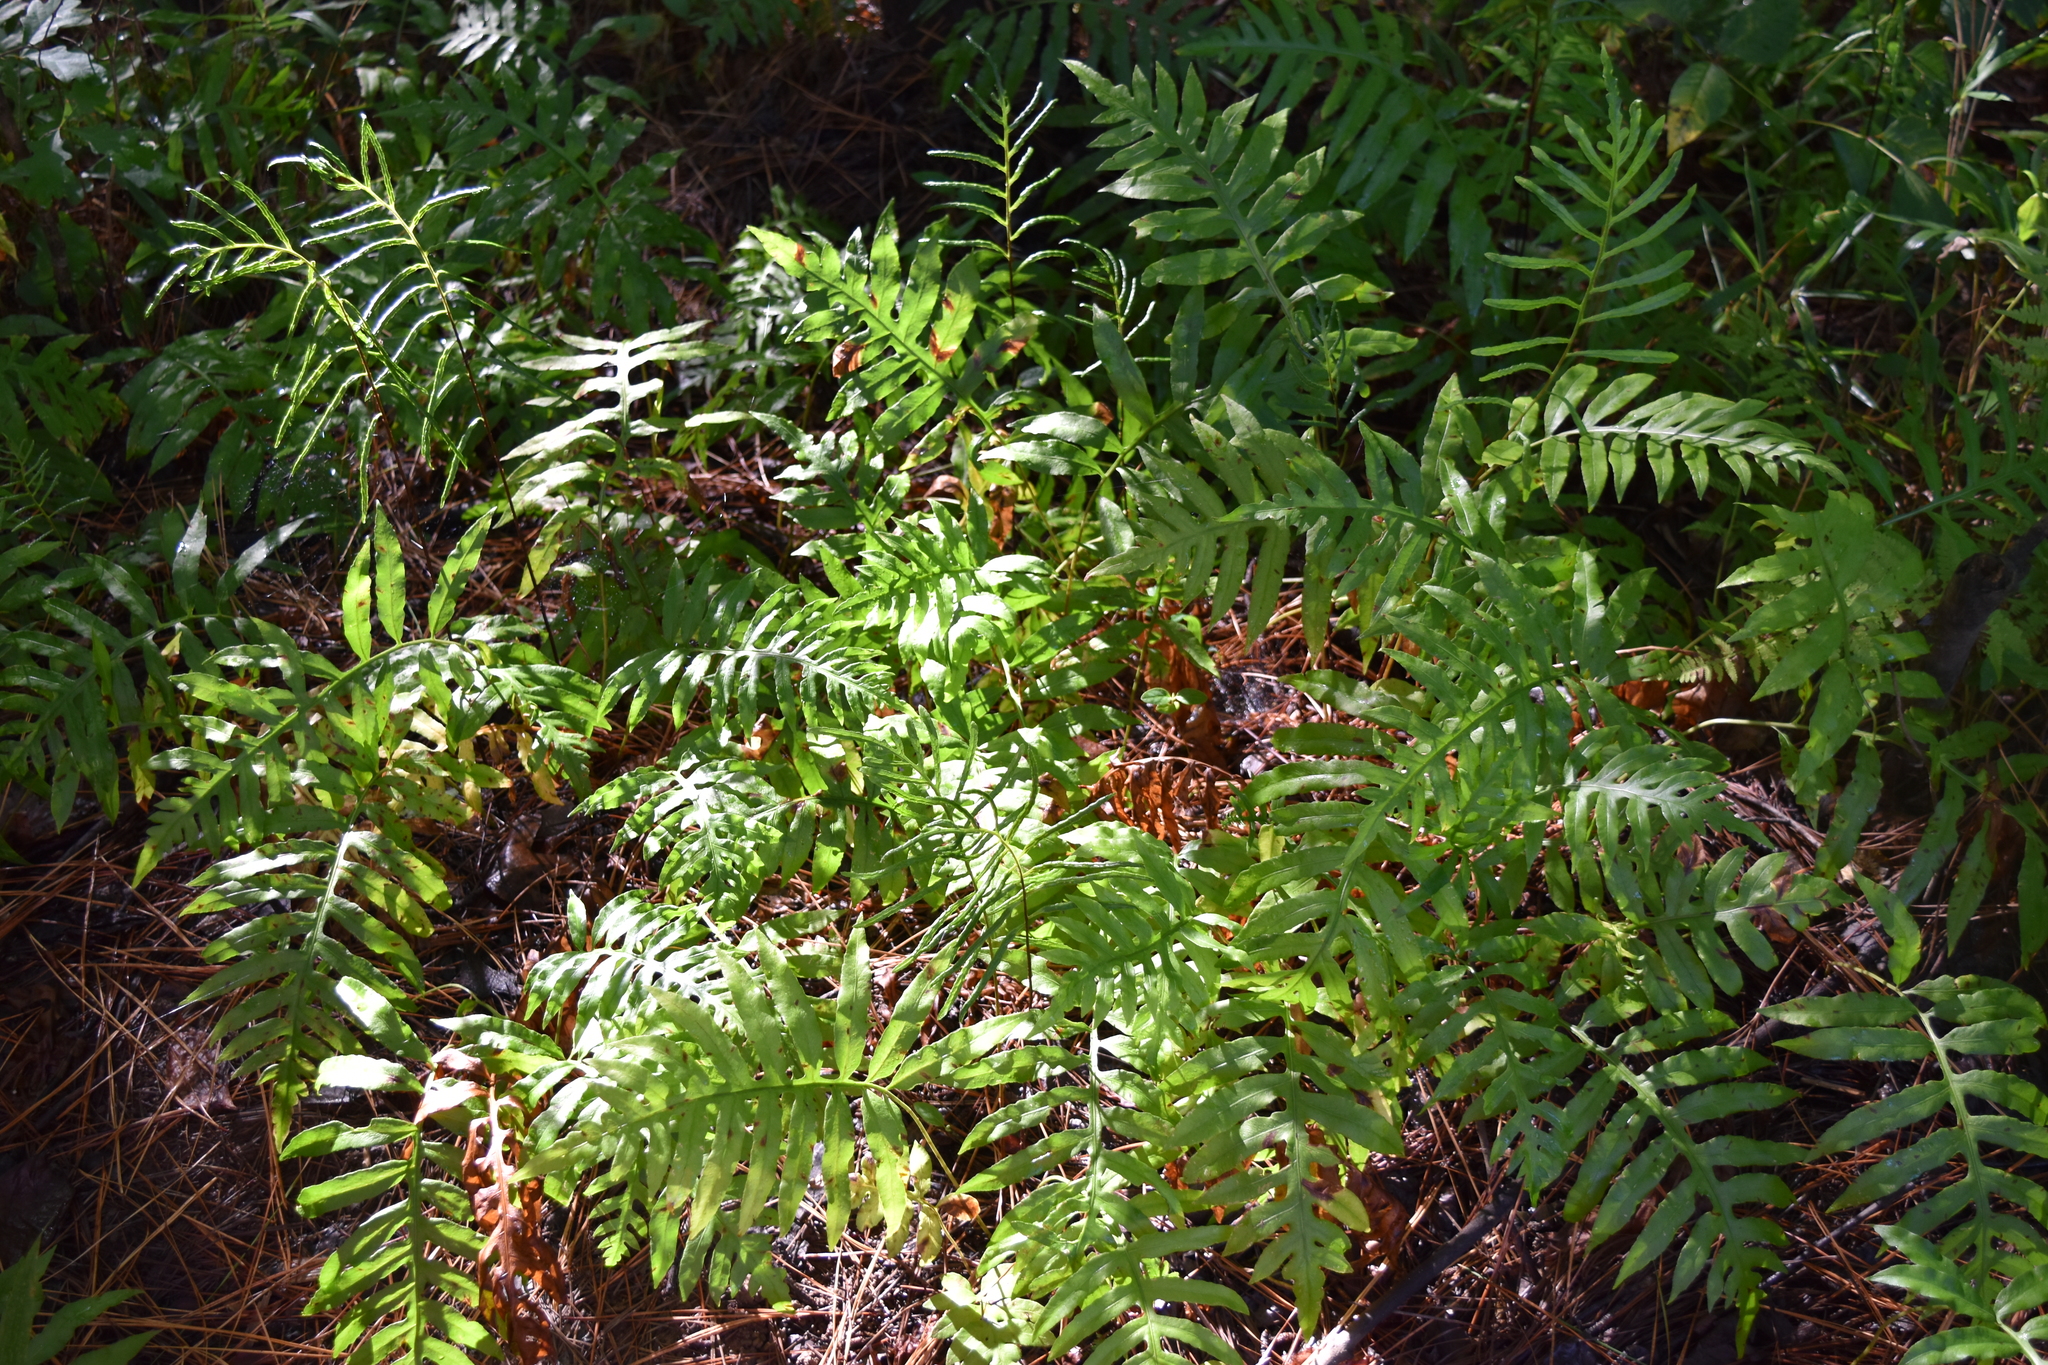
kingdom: Plantae
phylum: Tracheophyta
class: Polypodiopsida
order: Polypodiales
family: Blechnaceae
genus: Lorinseria
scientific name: Lorinseria areolata
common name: Dwarf chain fern
